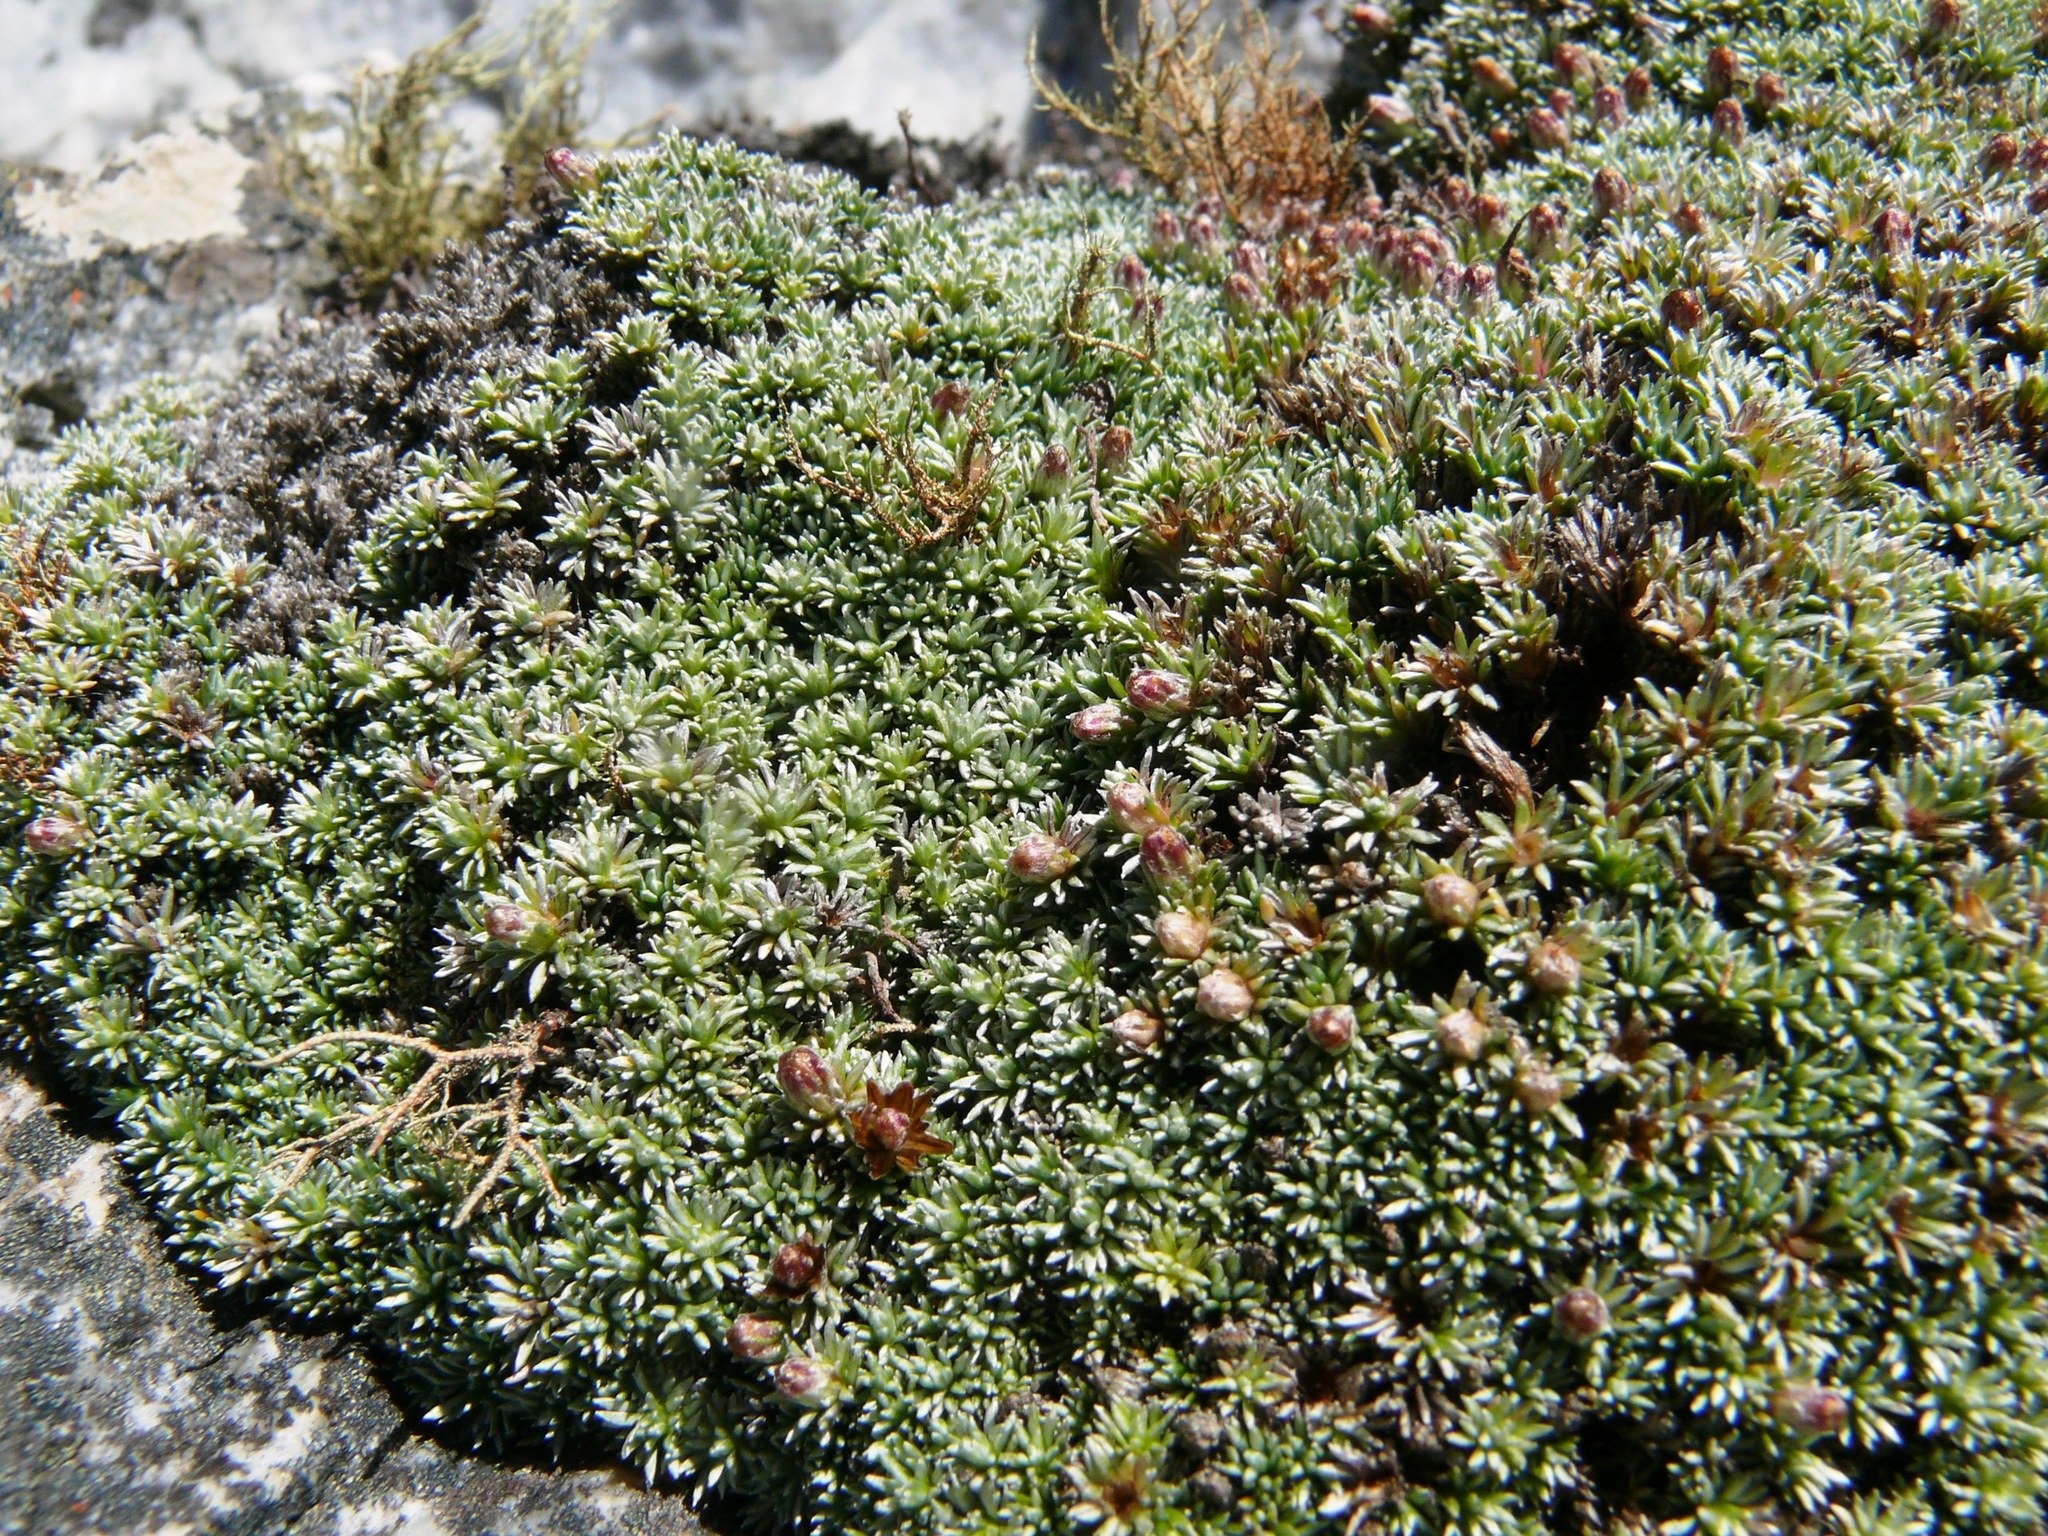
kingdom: Plantae
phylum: Tracheophyta
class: Magnoliopsida
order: Asterales
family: Asteraceae
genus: Muscosomorphe
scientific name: Muscosomorphe aretioides
